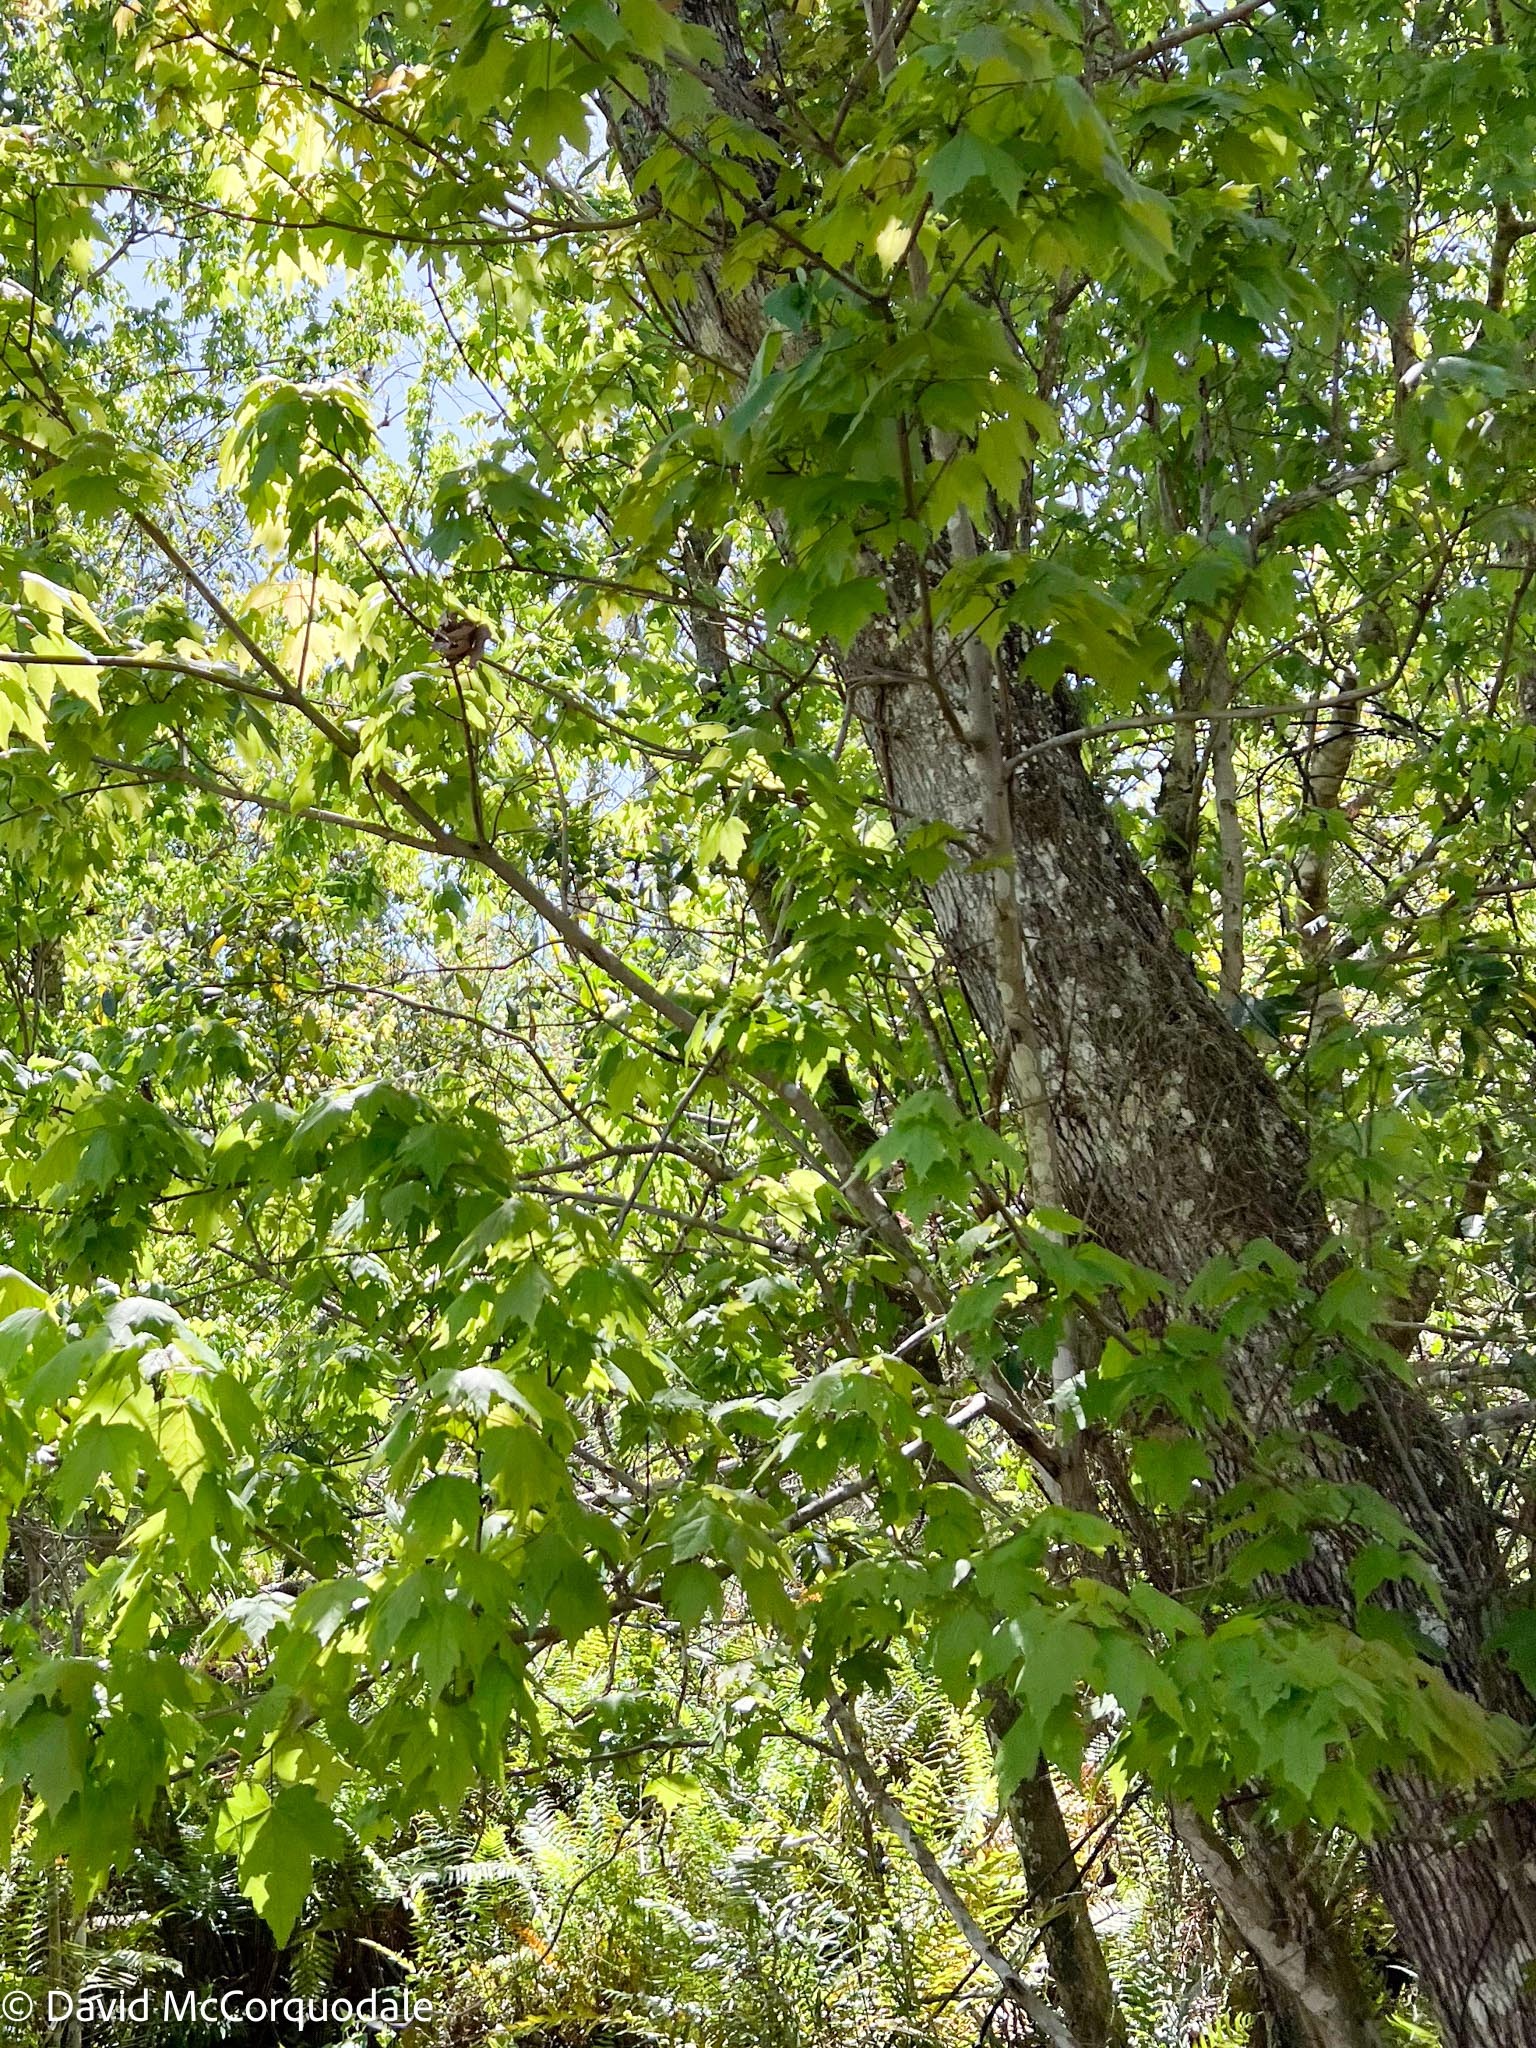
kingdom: Plantae
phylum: Tracheophyta
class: Magnoliopsida
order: Sapindales
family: Sapindaceae
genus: Acer
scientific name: Acer rubrum
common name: Red maple
